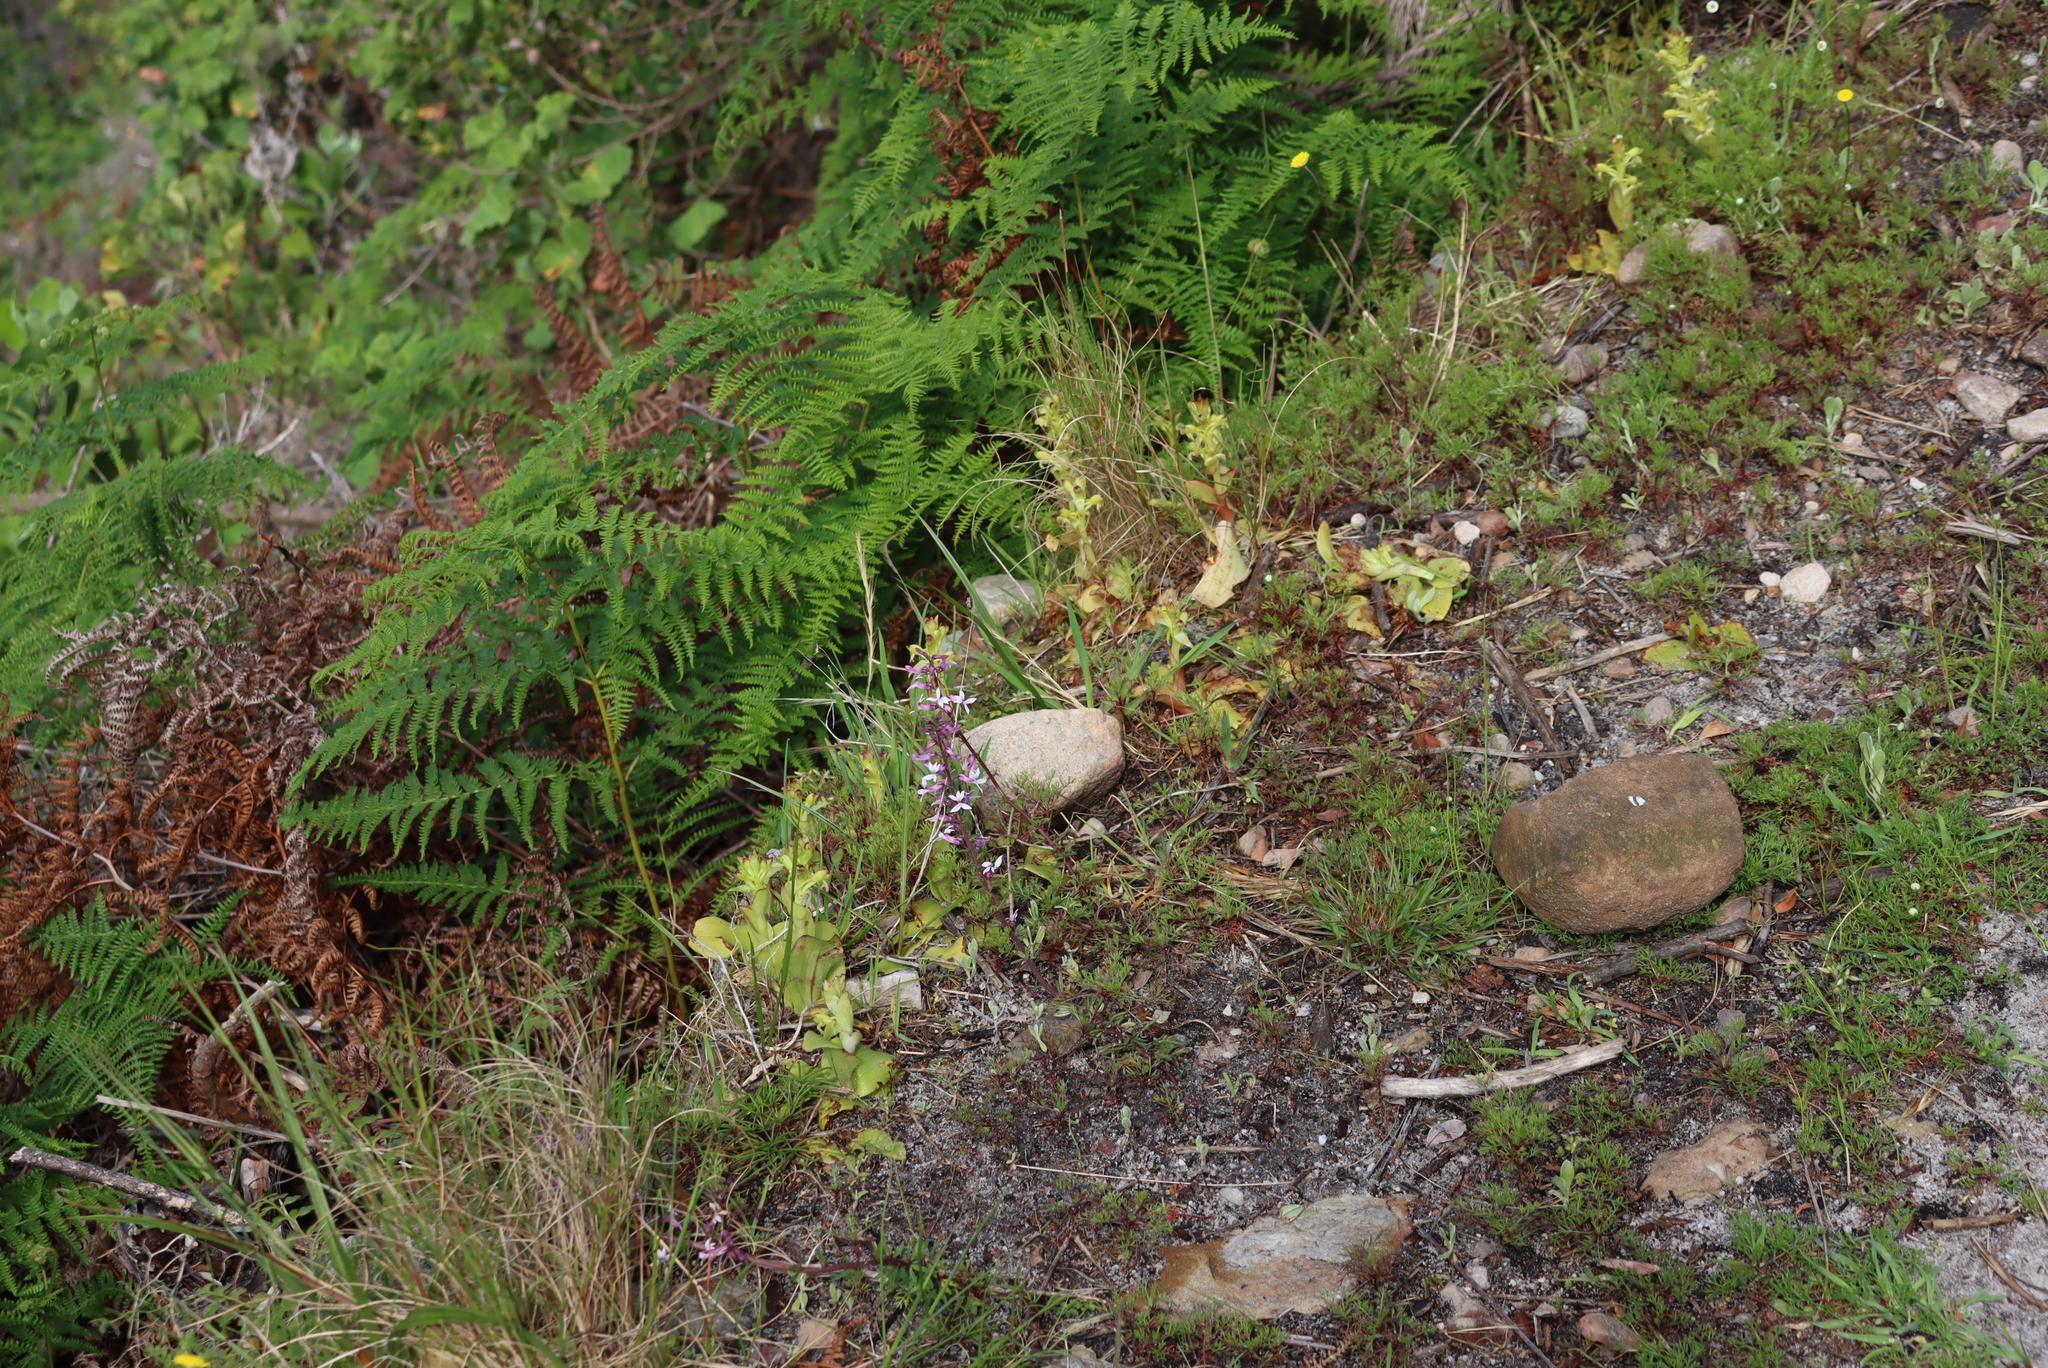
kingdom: Plantae
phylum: Tracheophyta
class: Liliopsida
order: Asparagales
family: Orchidaceae
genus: Satyrium
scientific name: Satyrium odorum
